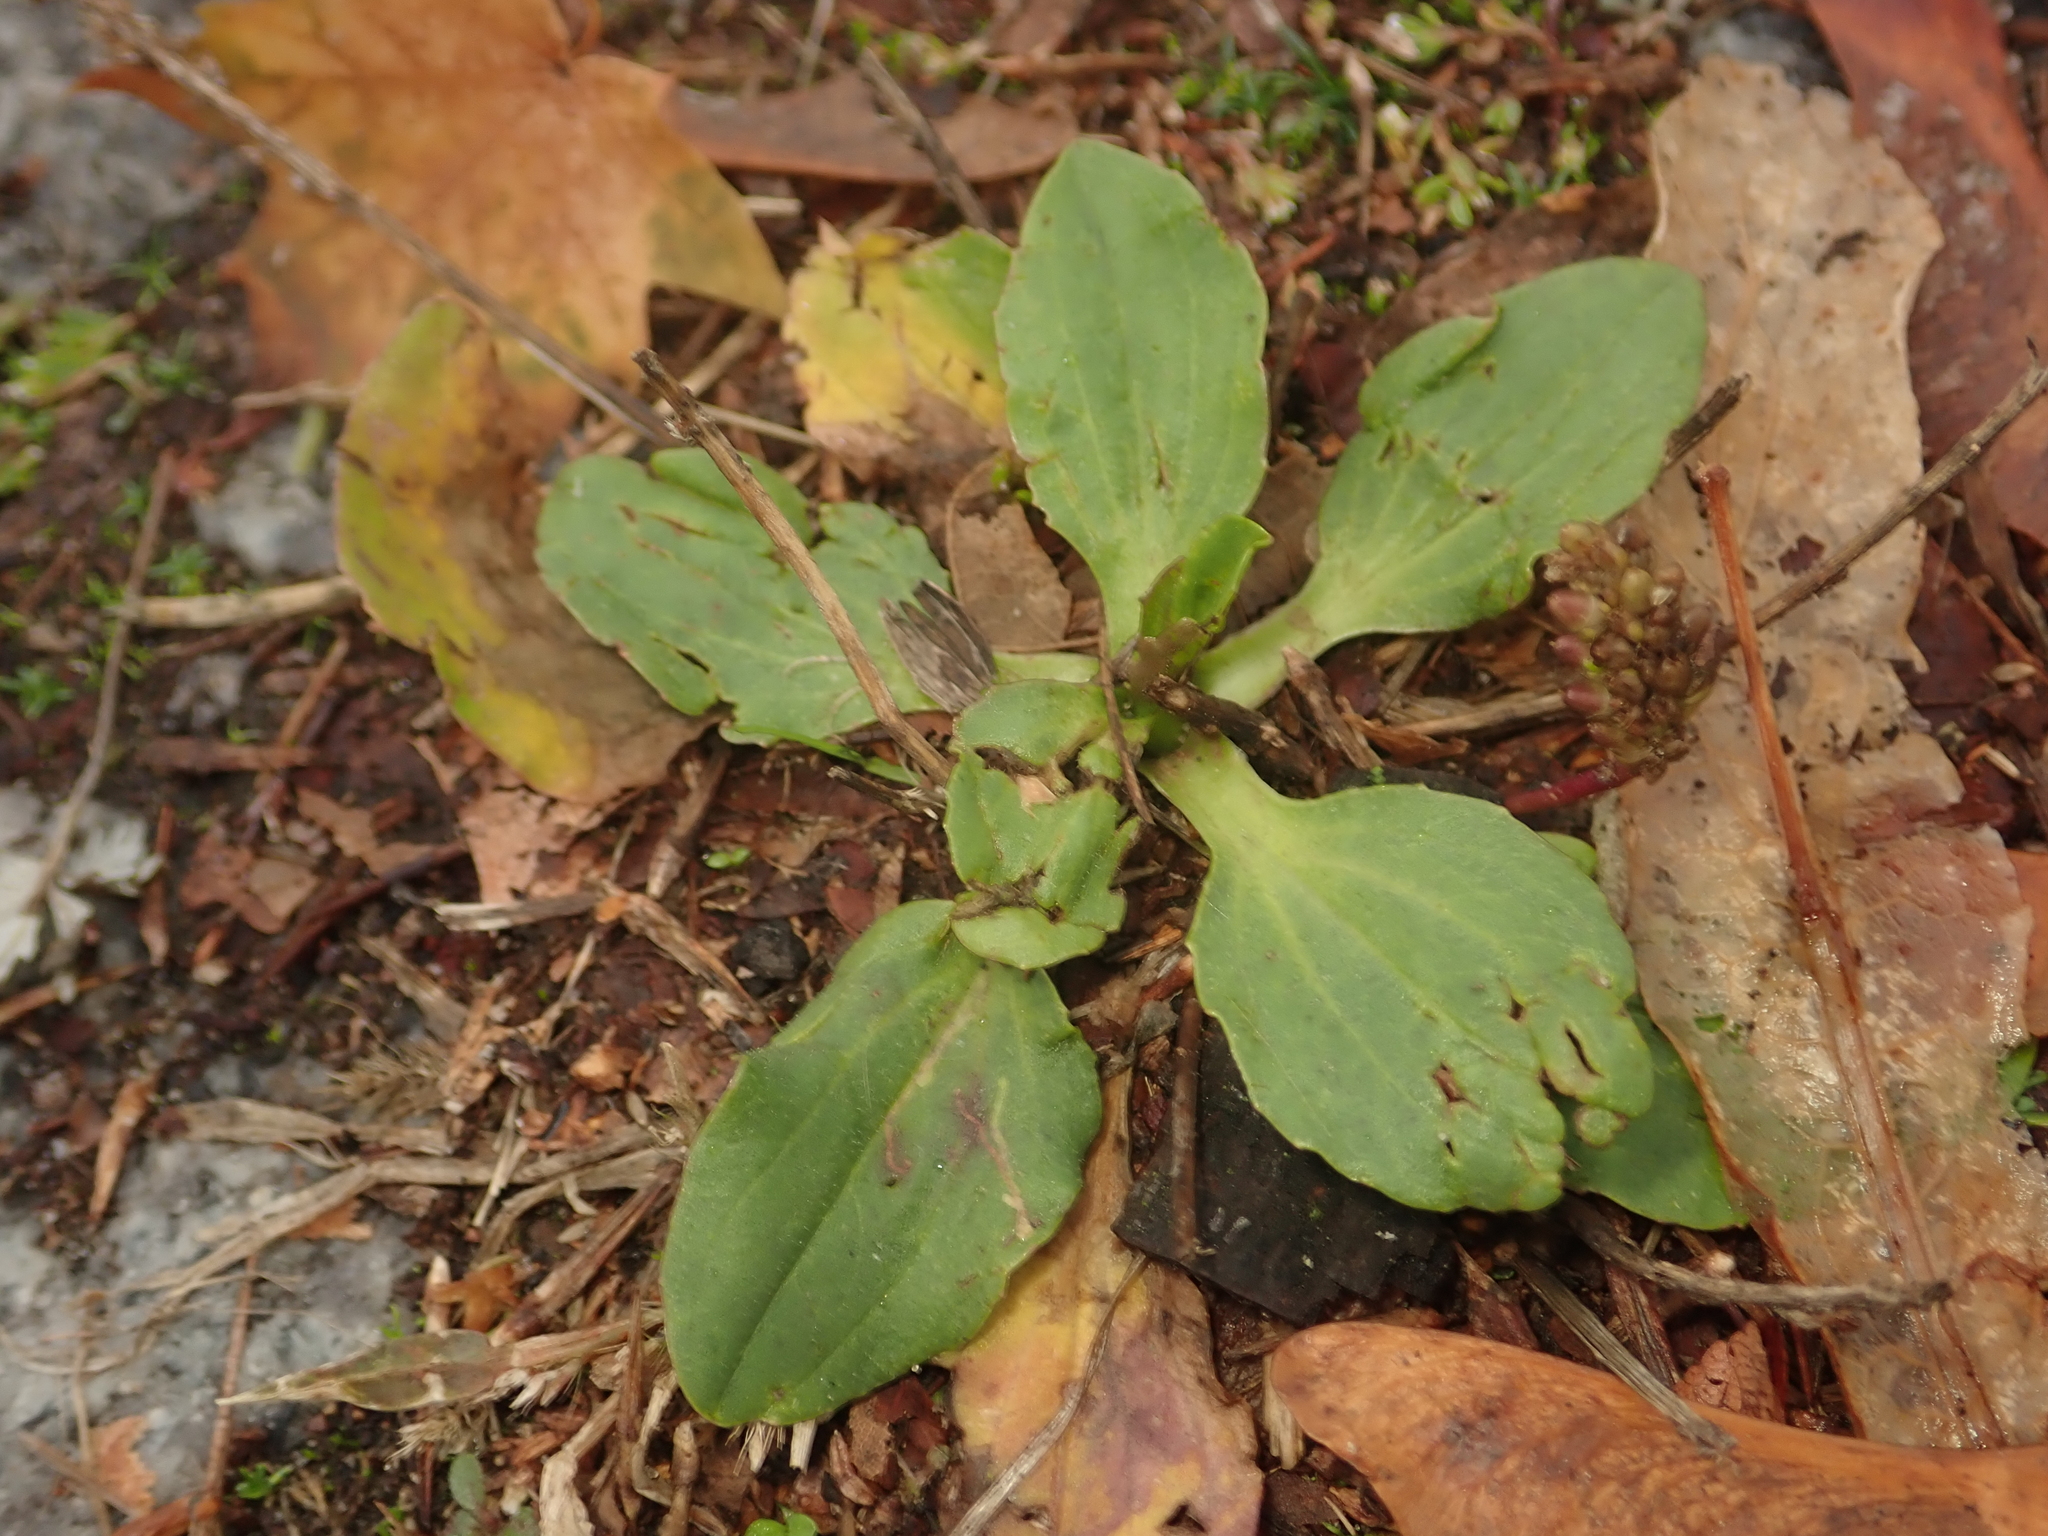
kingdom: Plantae
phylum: Tracheophyta
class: Magnoliopsida
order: Lamiales
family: Plantaginaceae
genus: Plantago
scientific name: Plantago major
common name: Common plantain
